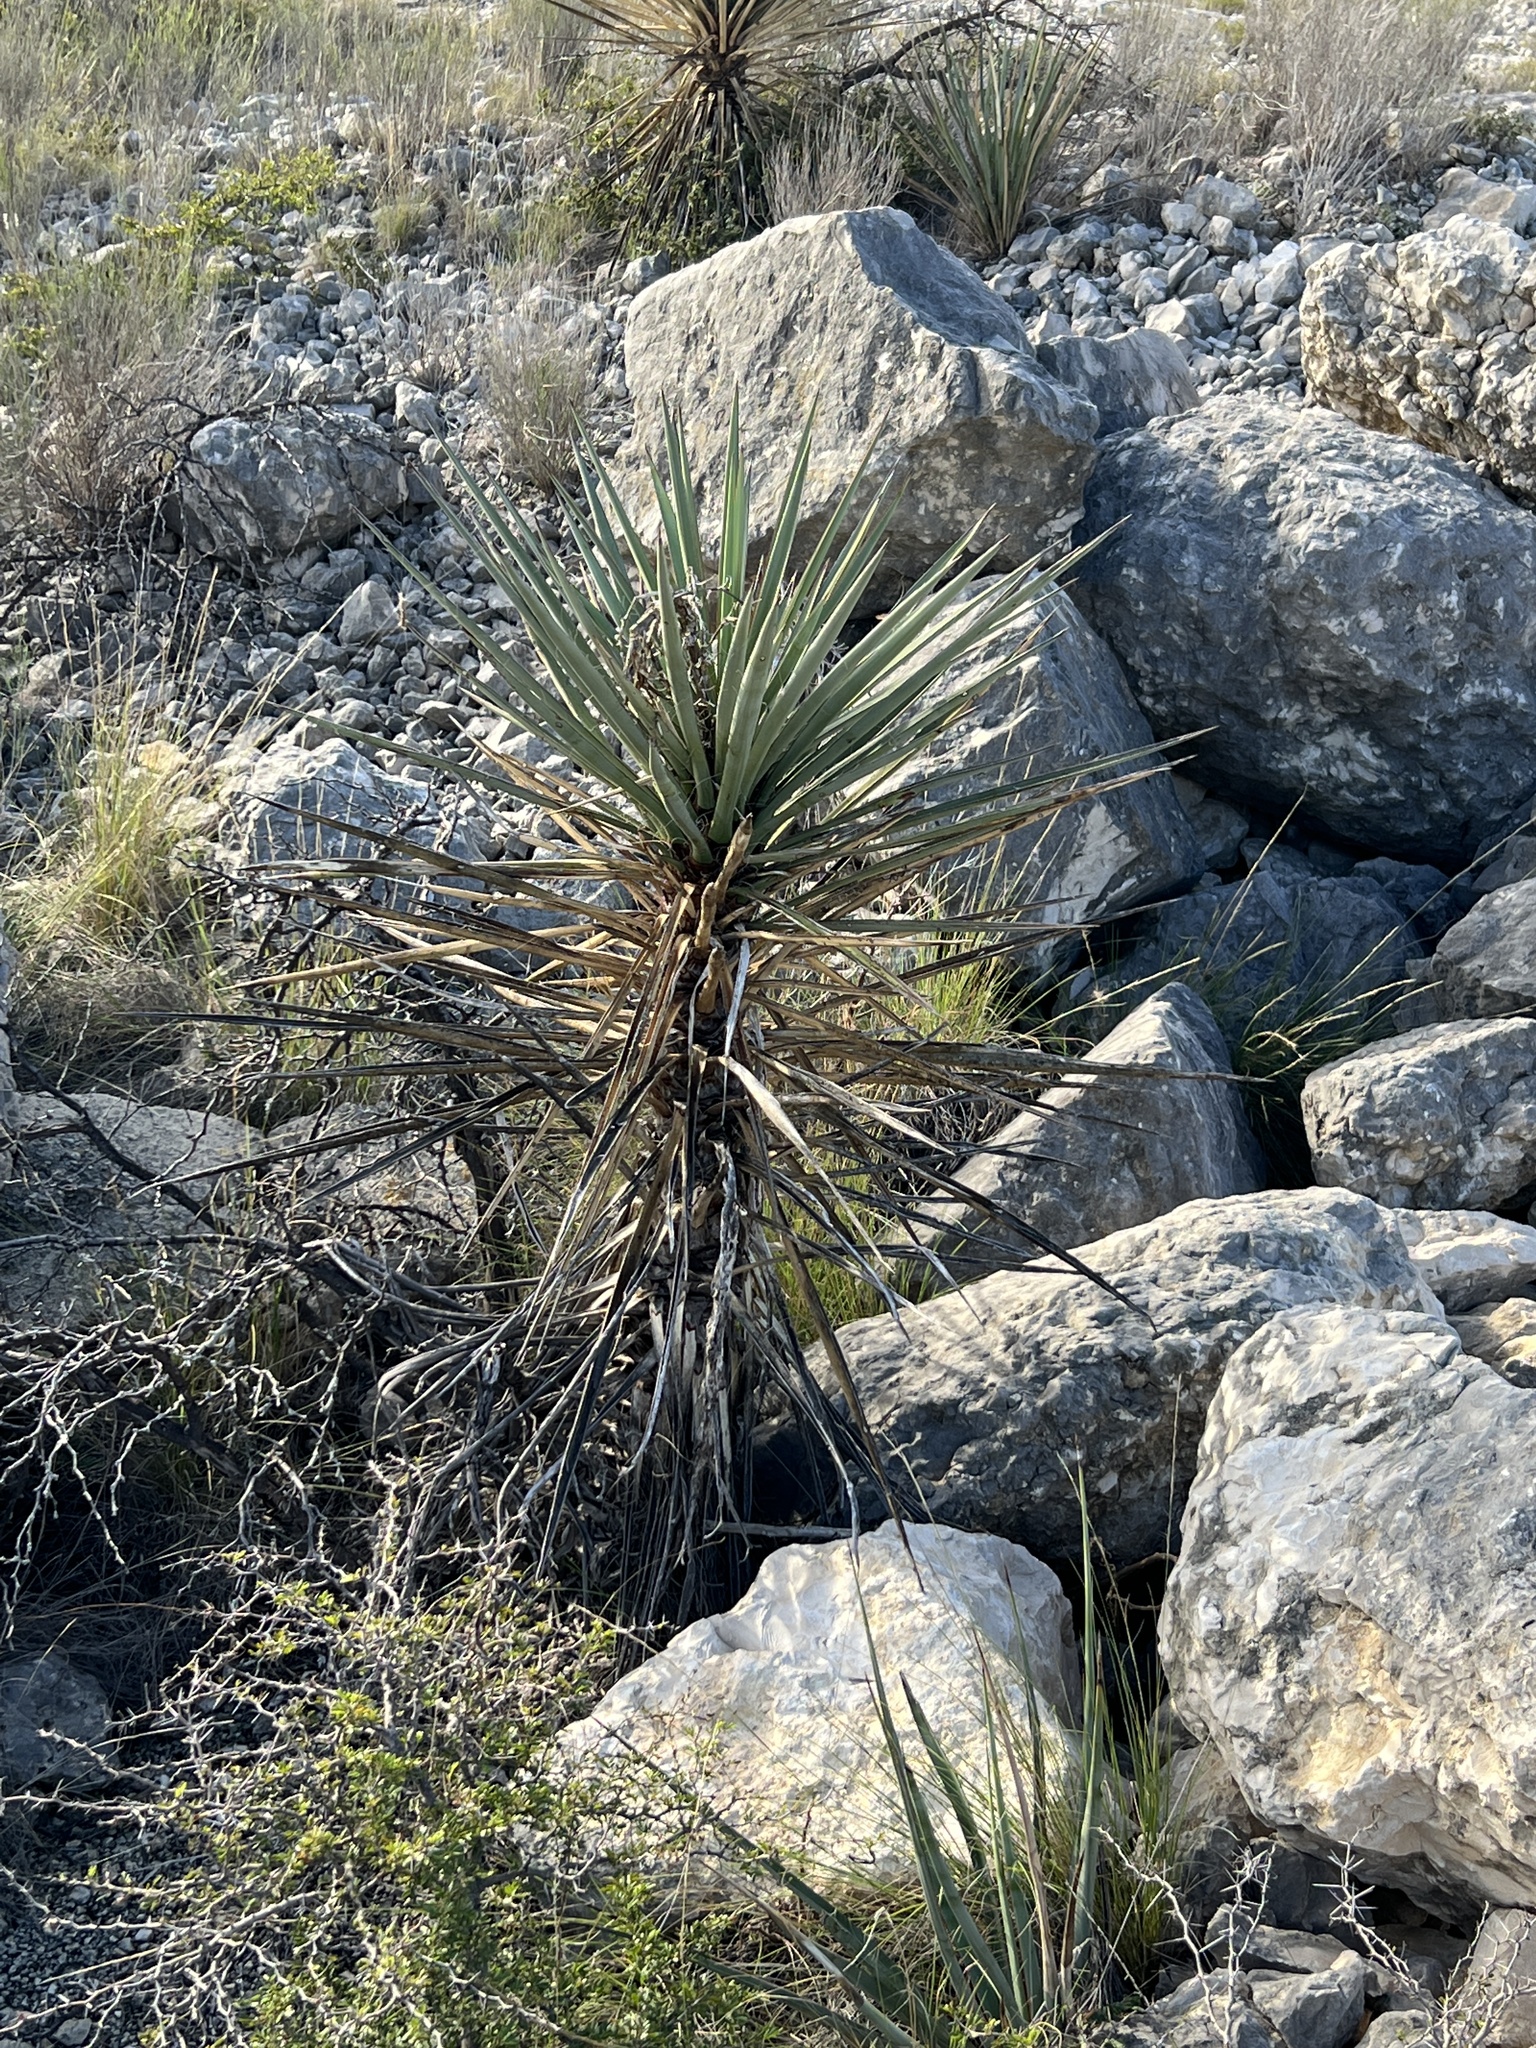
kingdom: Plantae
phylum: Tracheophyta
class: Liliopsida
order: Asparagales
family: Asparagaceae
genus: Yucca
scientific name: Yucca treculiana
